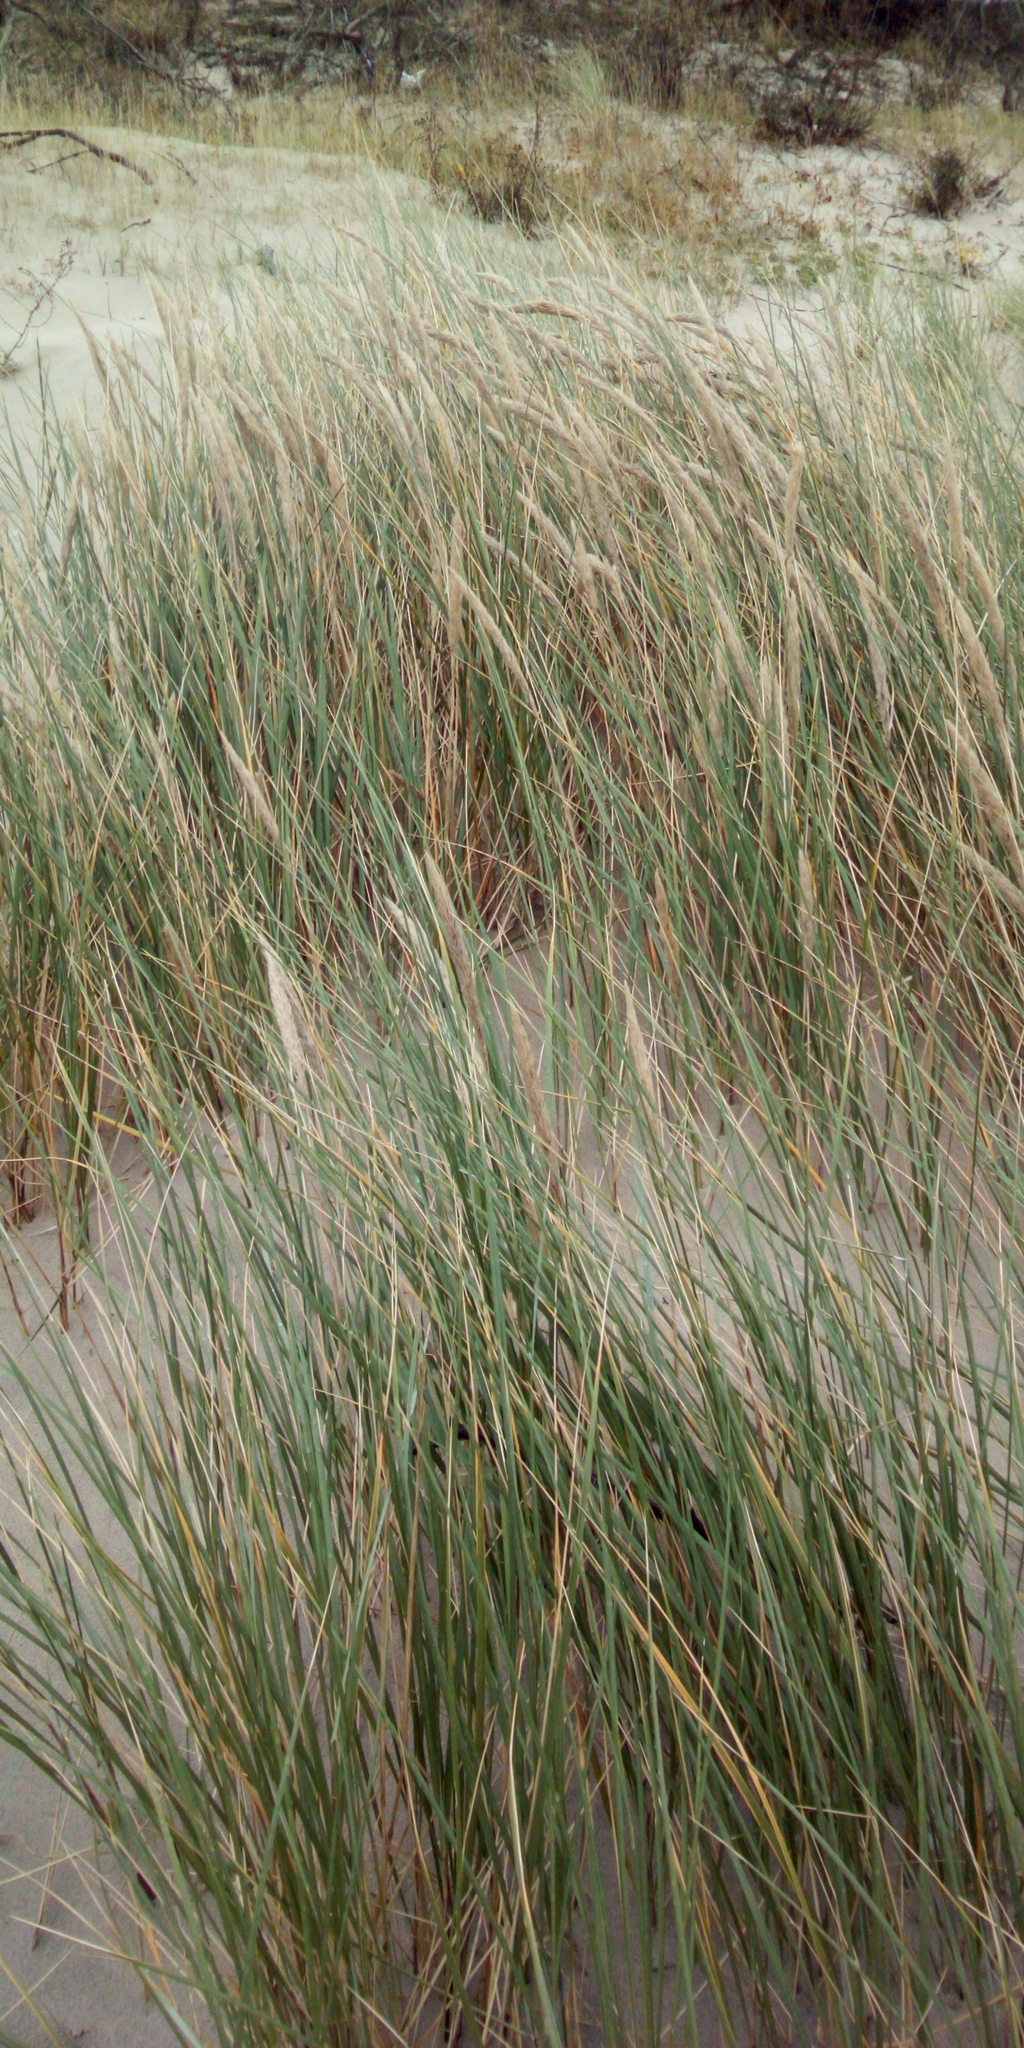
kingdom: Plantae
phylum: Tracheophyta
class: Liliopsida
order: Poales
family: Poaceae
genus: Calamagrostis
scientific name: Calamagrostis arenaria
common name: European beachgrass
